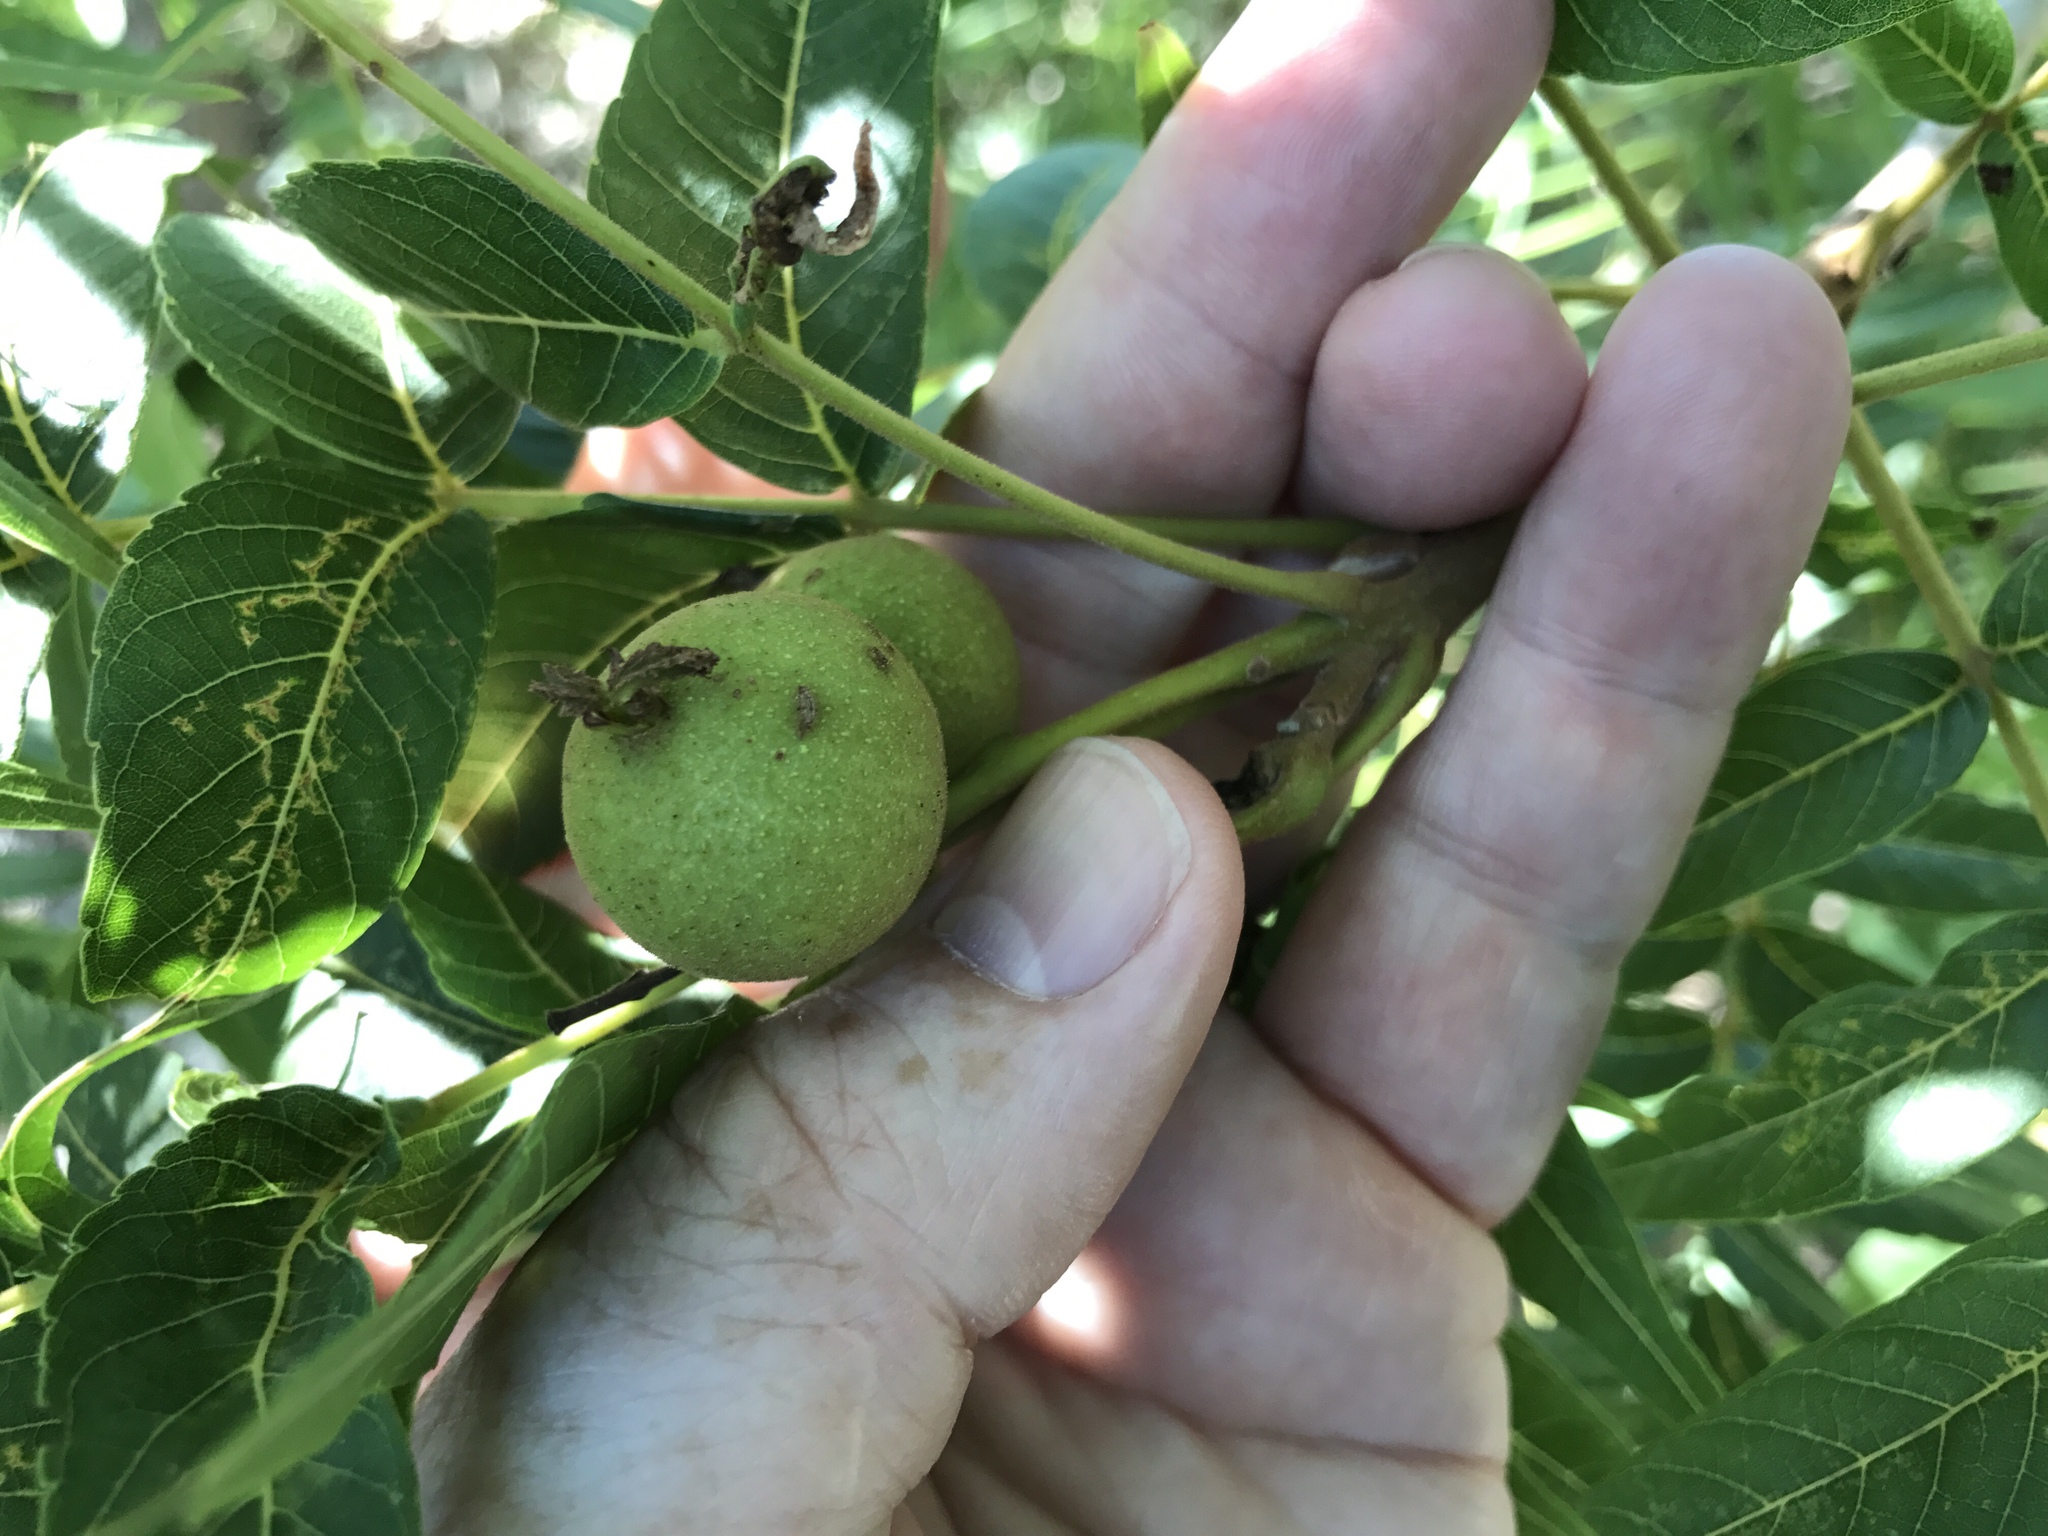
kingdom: Plantae
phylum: Tracheophyta
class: Magnoliopsida
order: Fagales
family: Juglandaceae
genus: Juglans
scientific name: Juglans microcarpa
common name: Texas walnut
